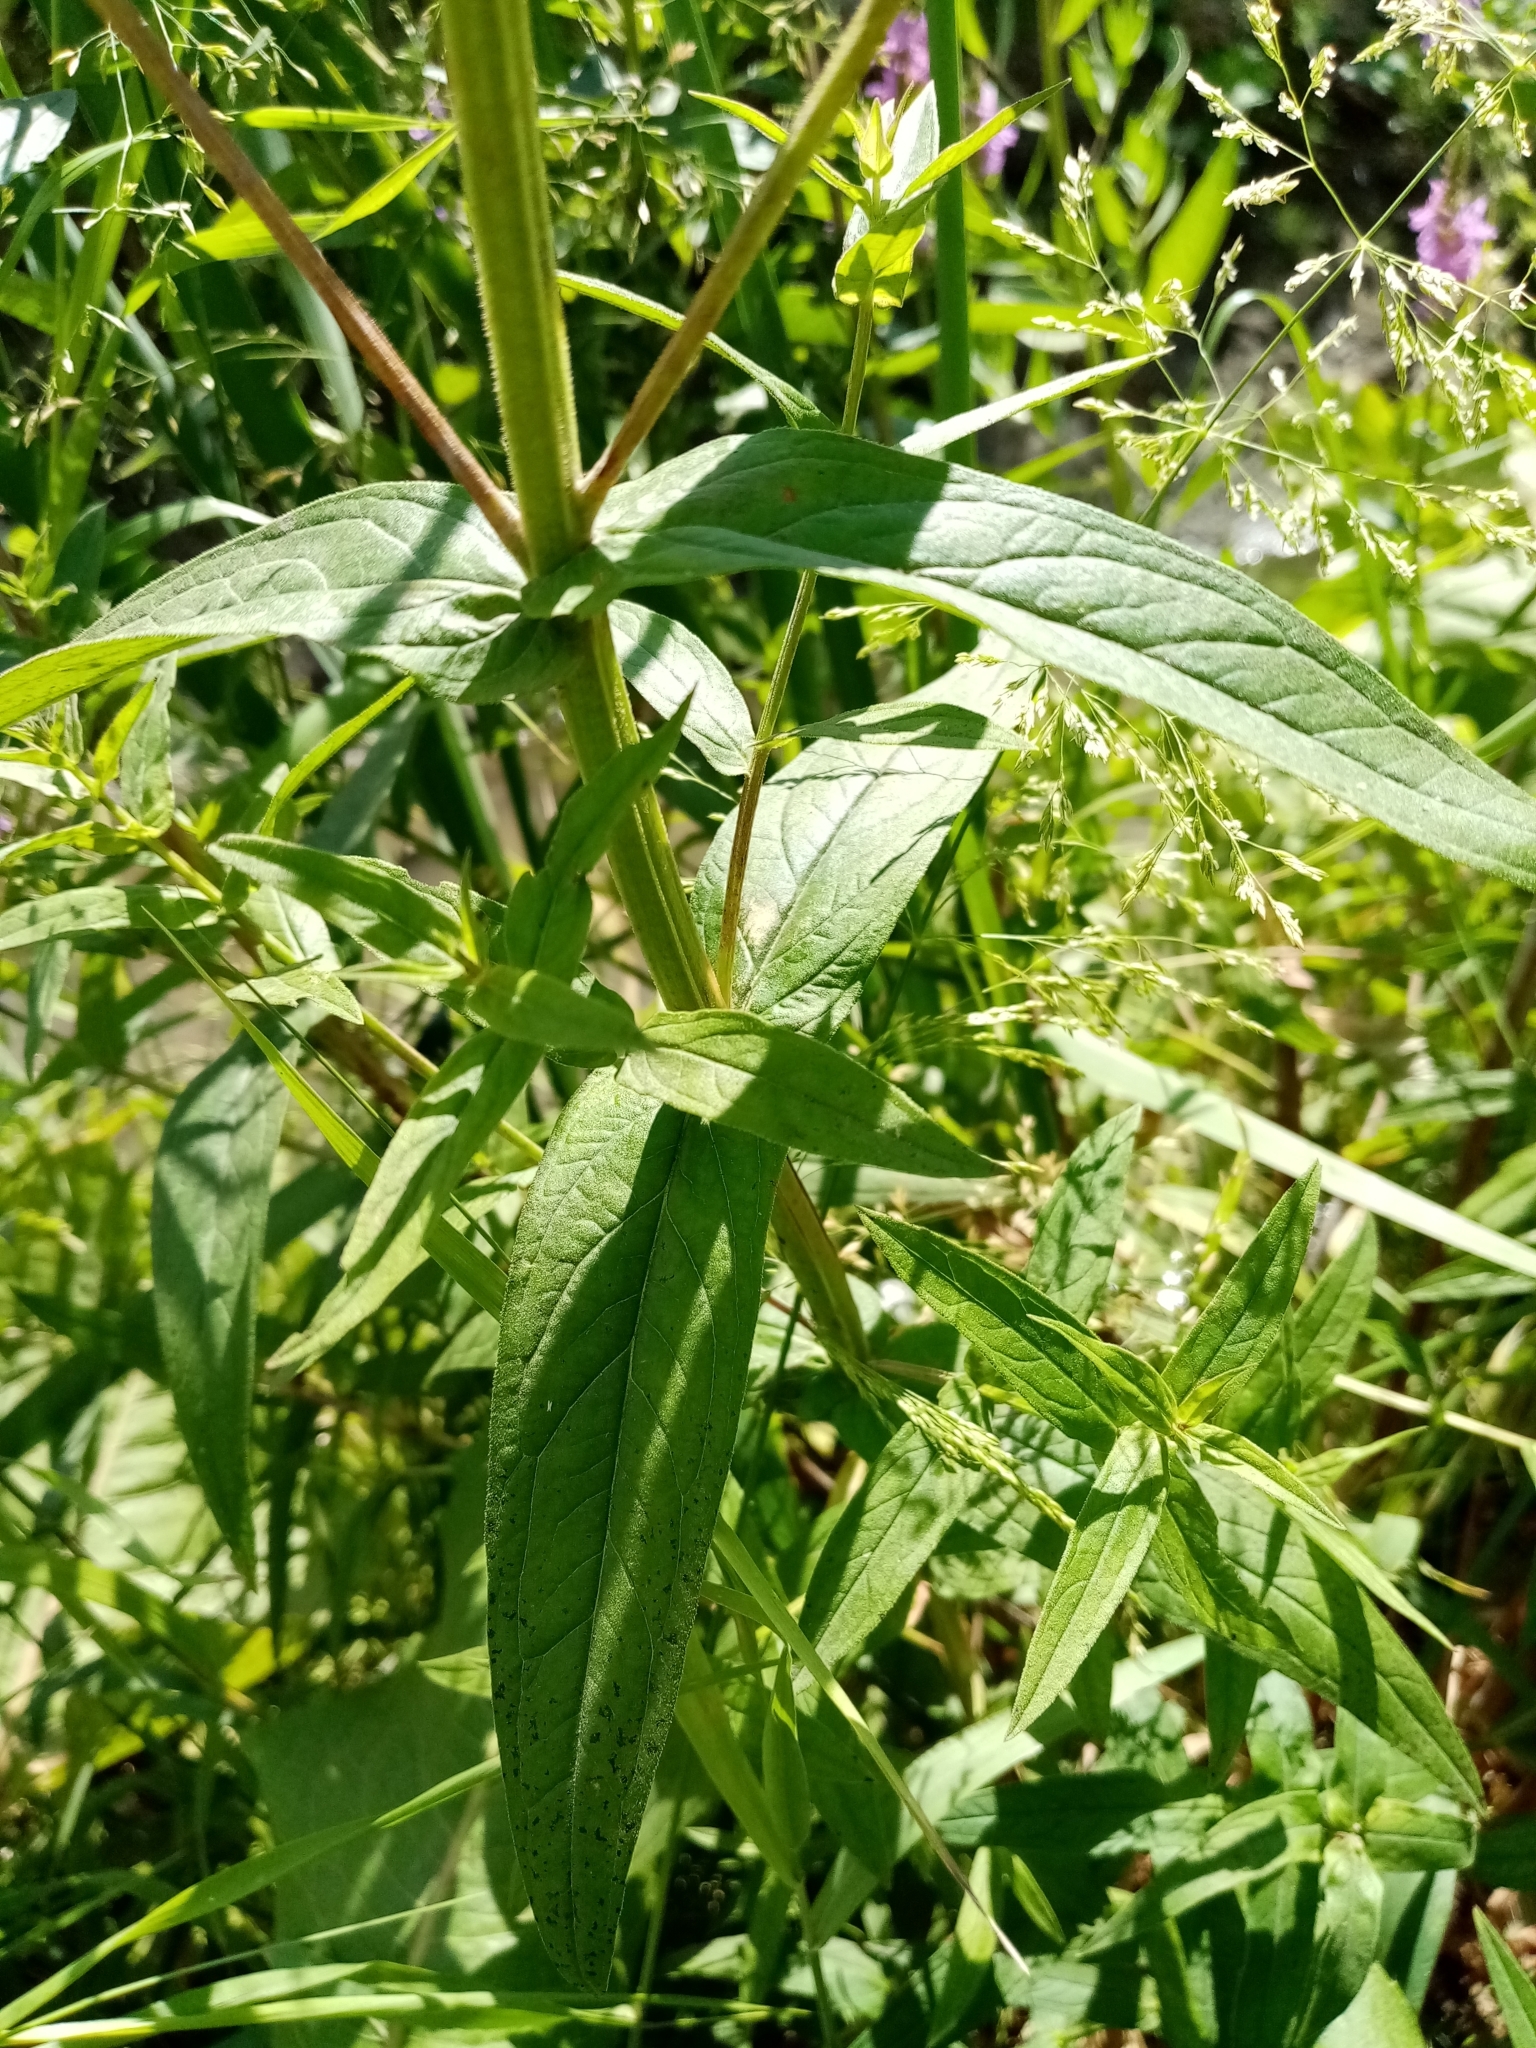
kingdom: Plantae
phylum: Tracheophyta
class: Magnoliopsida
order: Myrtales
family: Lythraceae
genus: Lythrum
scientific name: Lythrum salicaria
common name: Purple loosestrife
